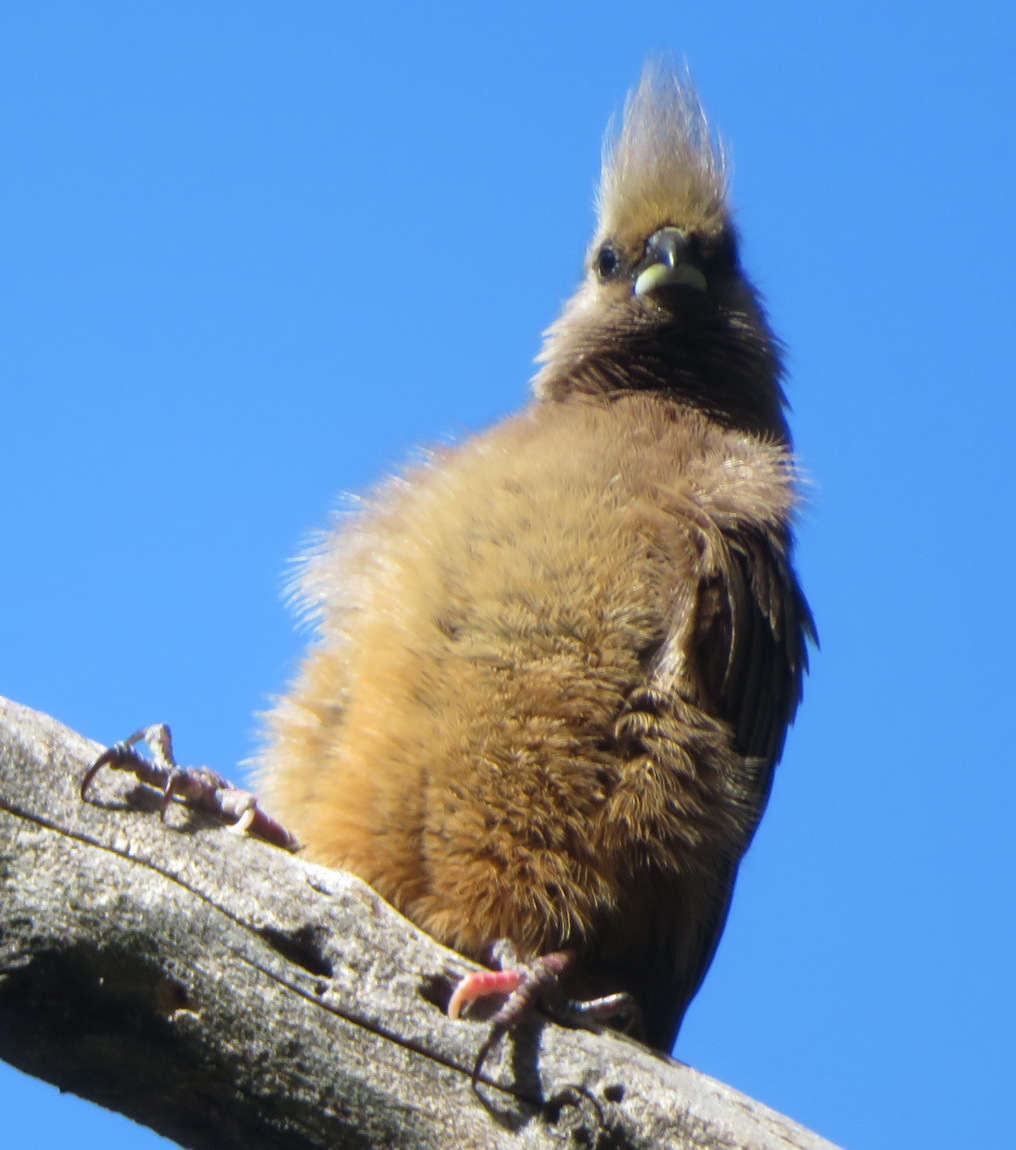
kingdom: Animalia
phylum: Chordata
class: Aves
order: Coliiformes
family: Coliidae
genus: Colius
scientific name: Colius striatus
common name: Speckled mousebird
